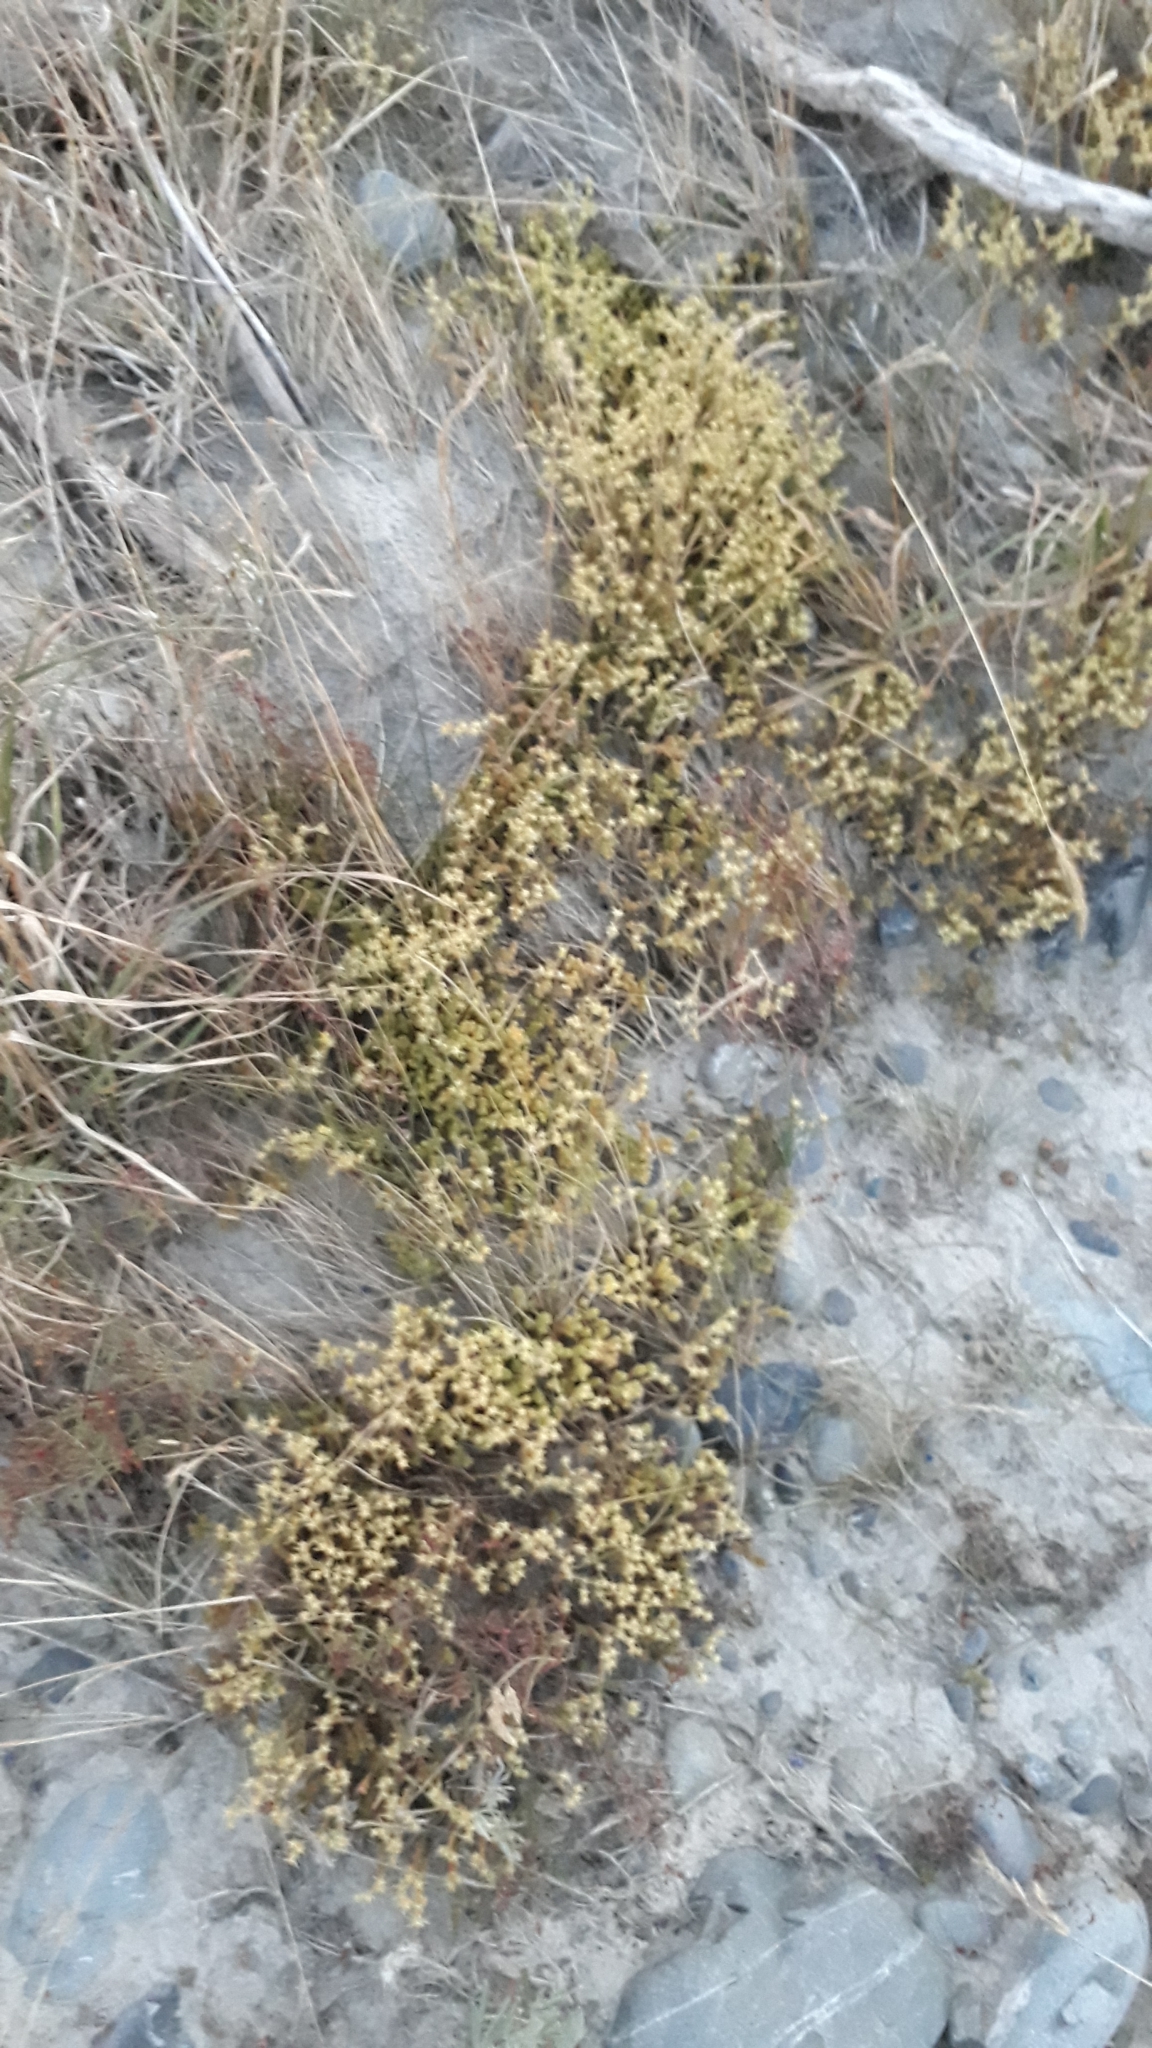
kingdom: Plantae
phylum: Tracheophyta
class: Magnoliopsida
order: Saxifragales
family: Crassulaceae
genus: Sedum
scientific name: Sedum acre
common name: Biting stonecrop
